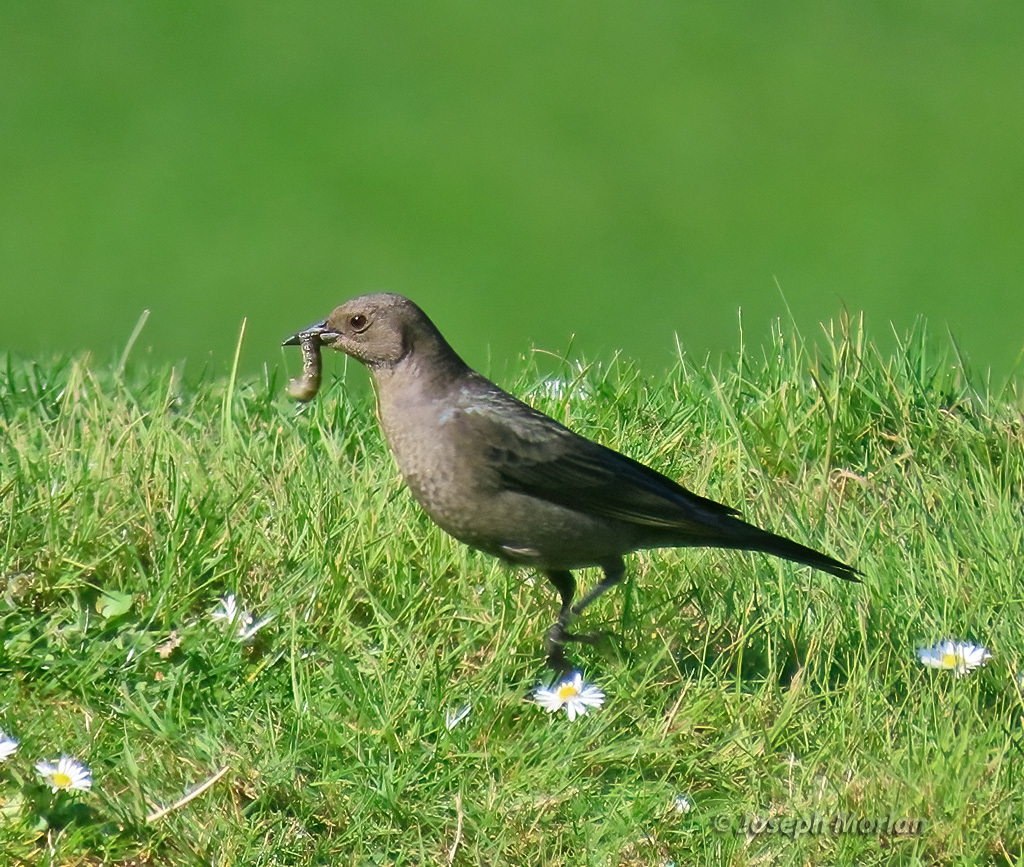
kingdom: Animalia
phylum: Chordata
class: Aves
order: Passeriformes
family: Icteridae
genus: Euphagus
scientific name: Euphagus cyanocephalus
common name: Brewer's blackbird
